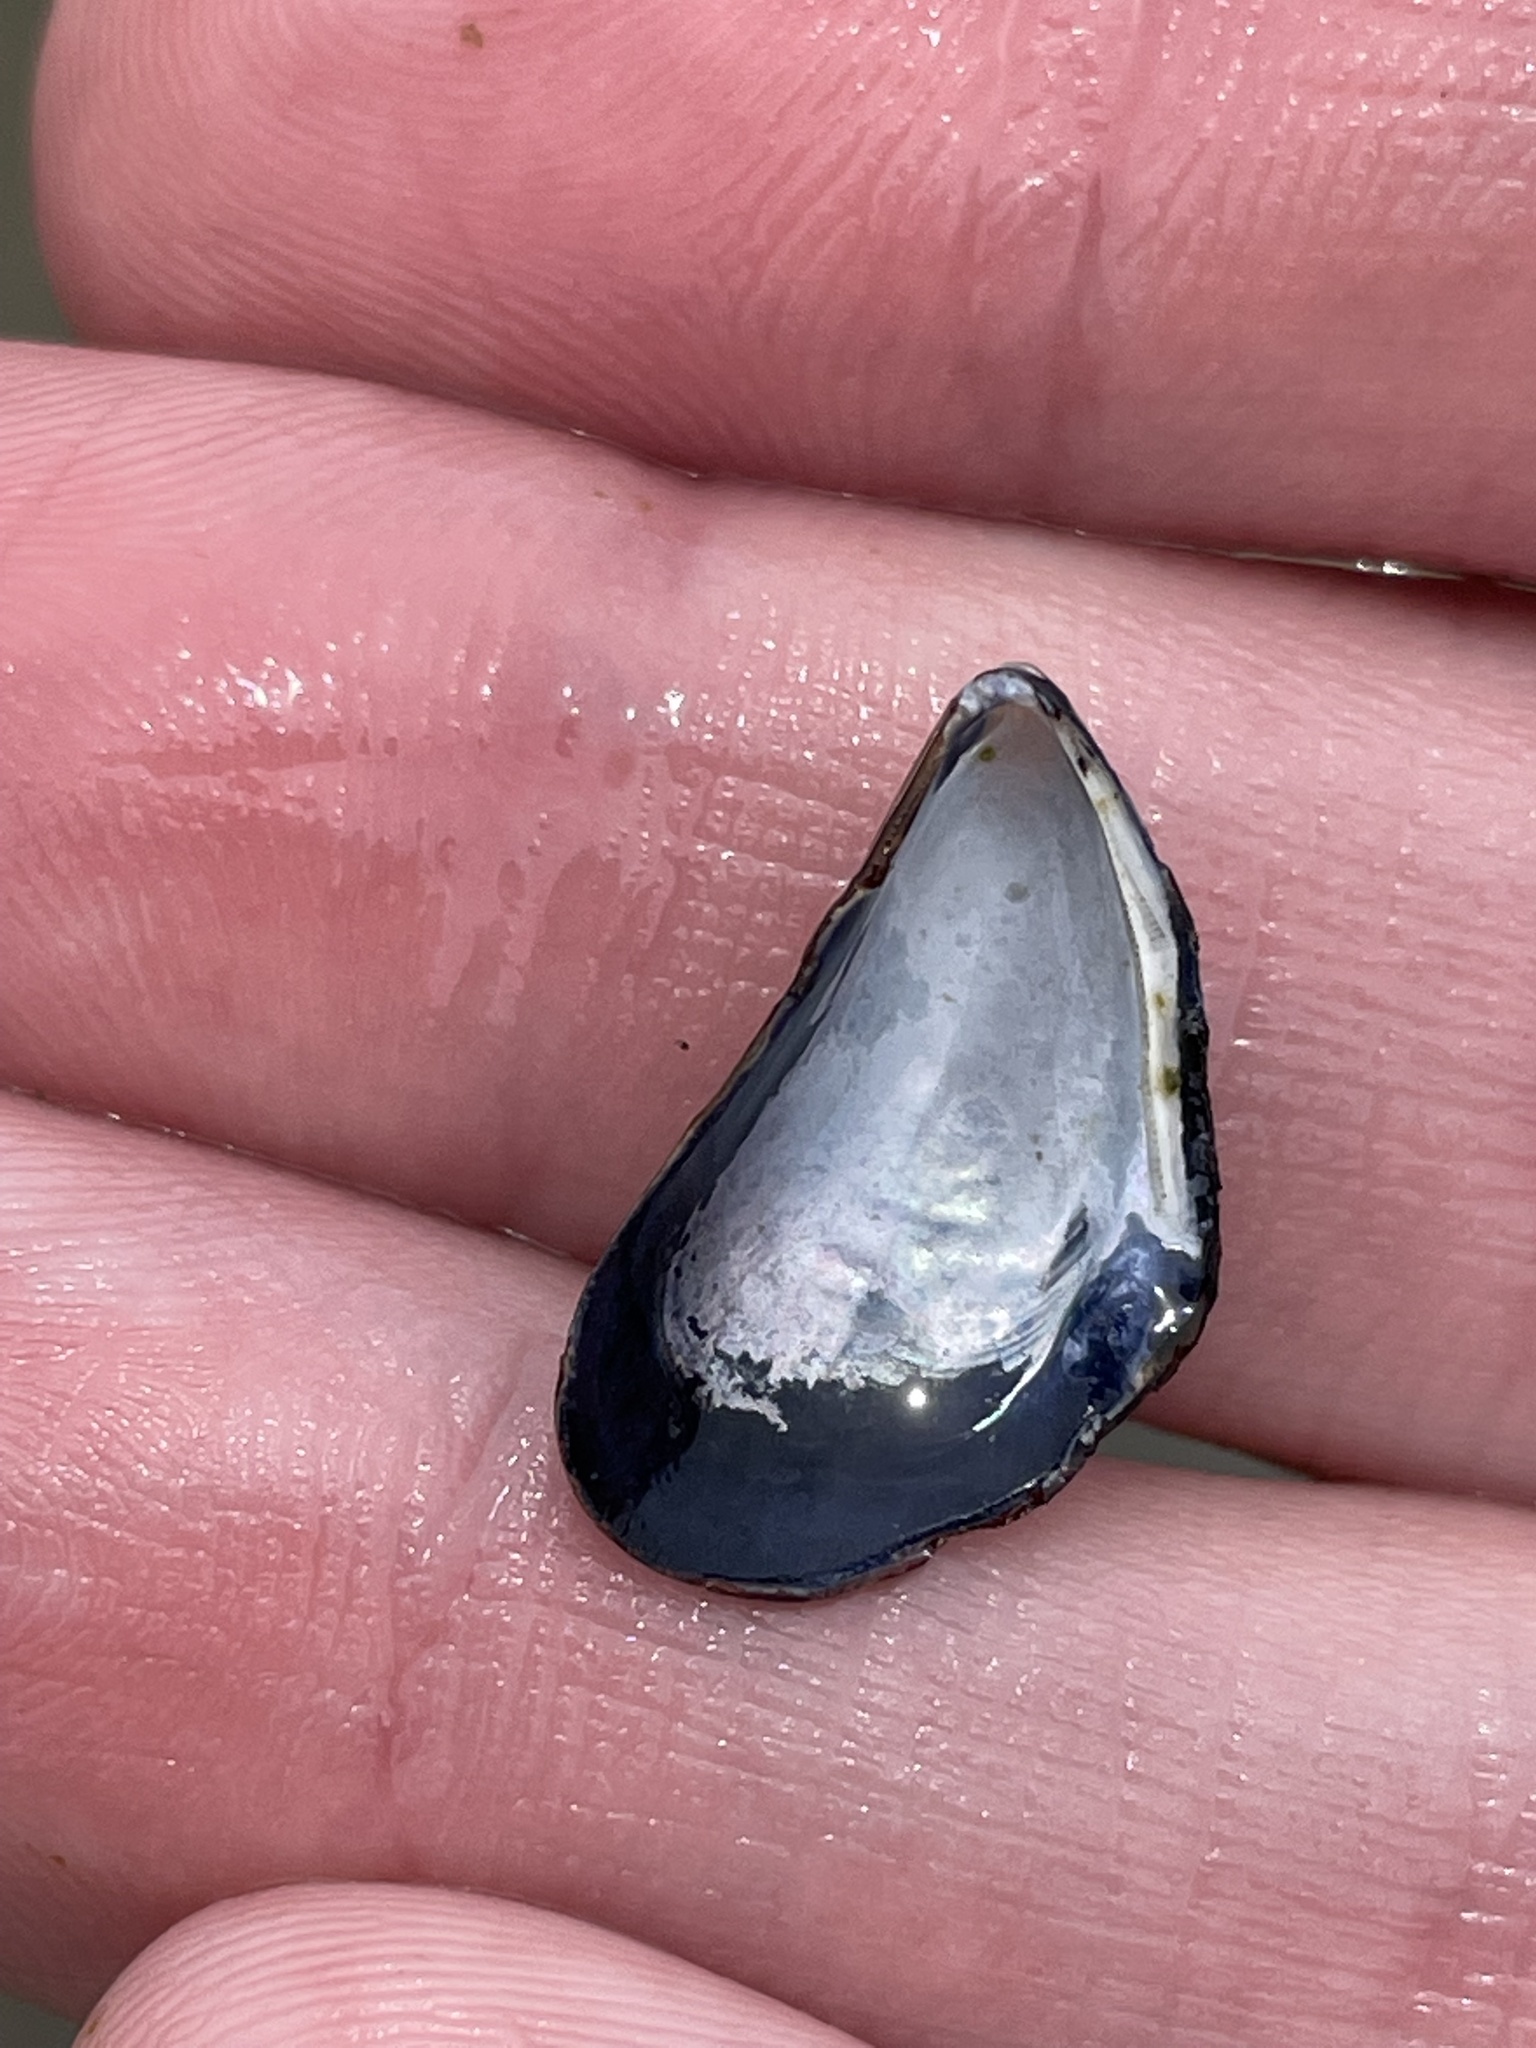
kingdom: Animalia
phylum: Mollusca
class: Bivalvia
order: Mytilida
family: Mytilidae
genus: Mytilus
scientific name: Mytilus edulis
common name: Blue mussel
